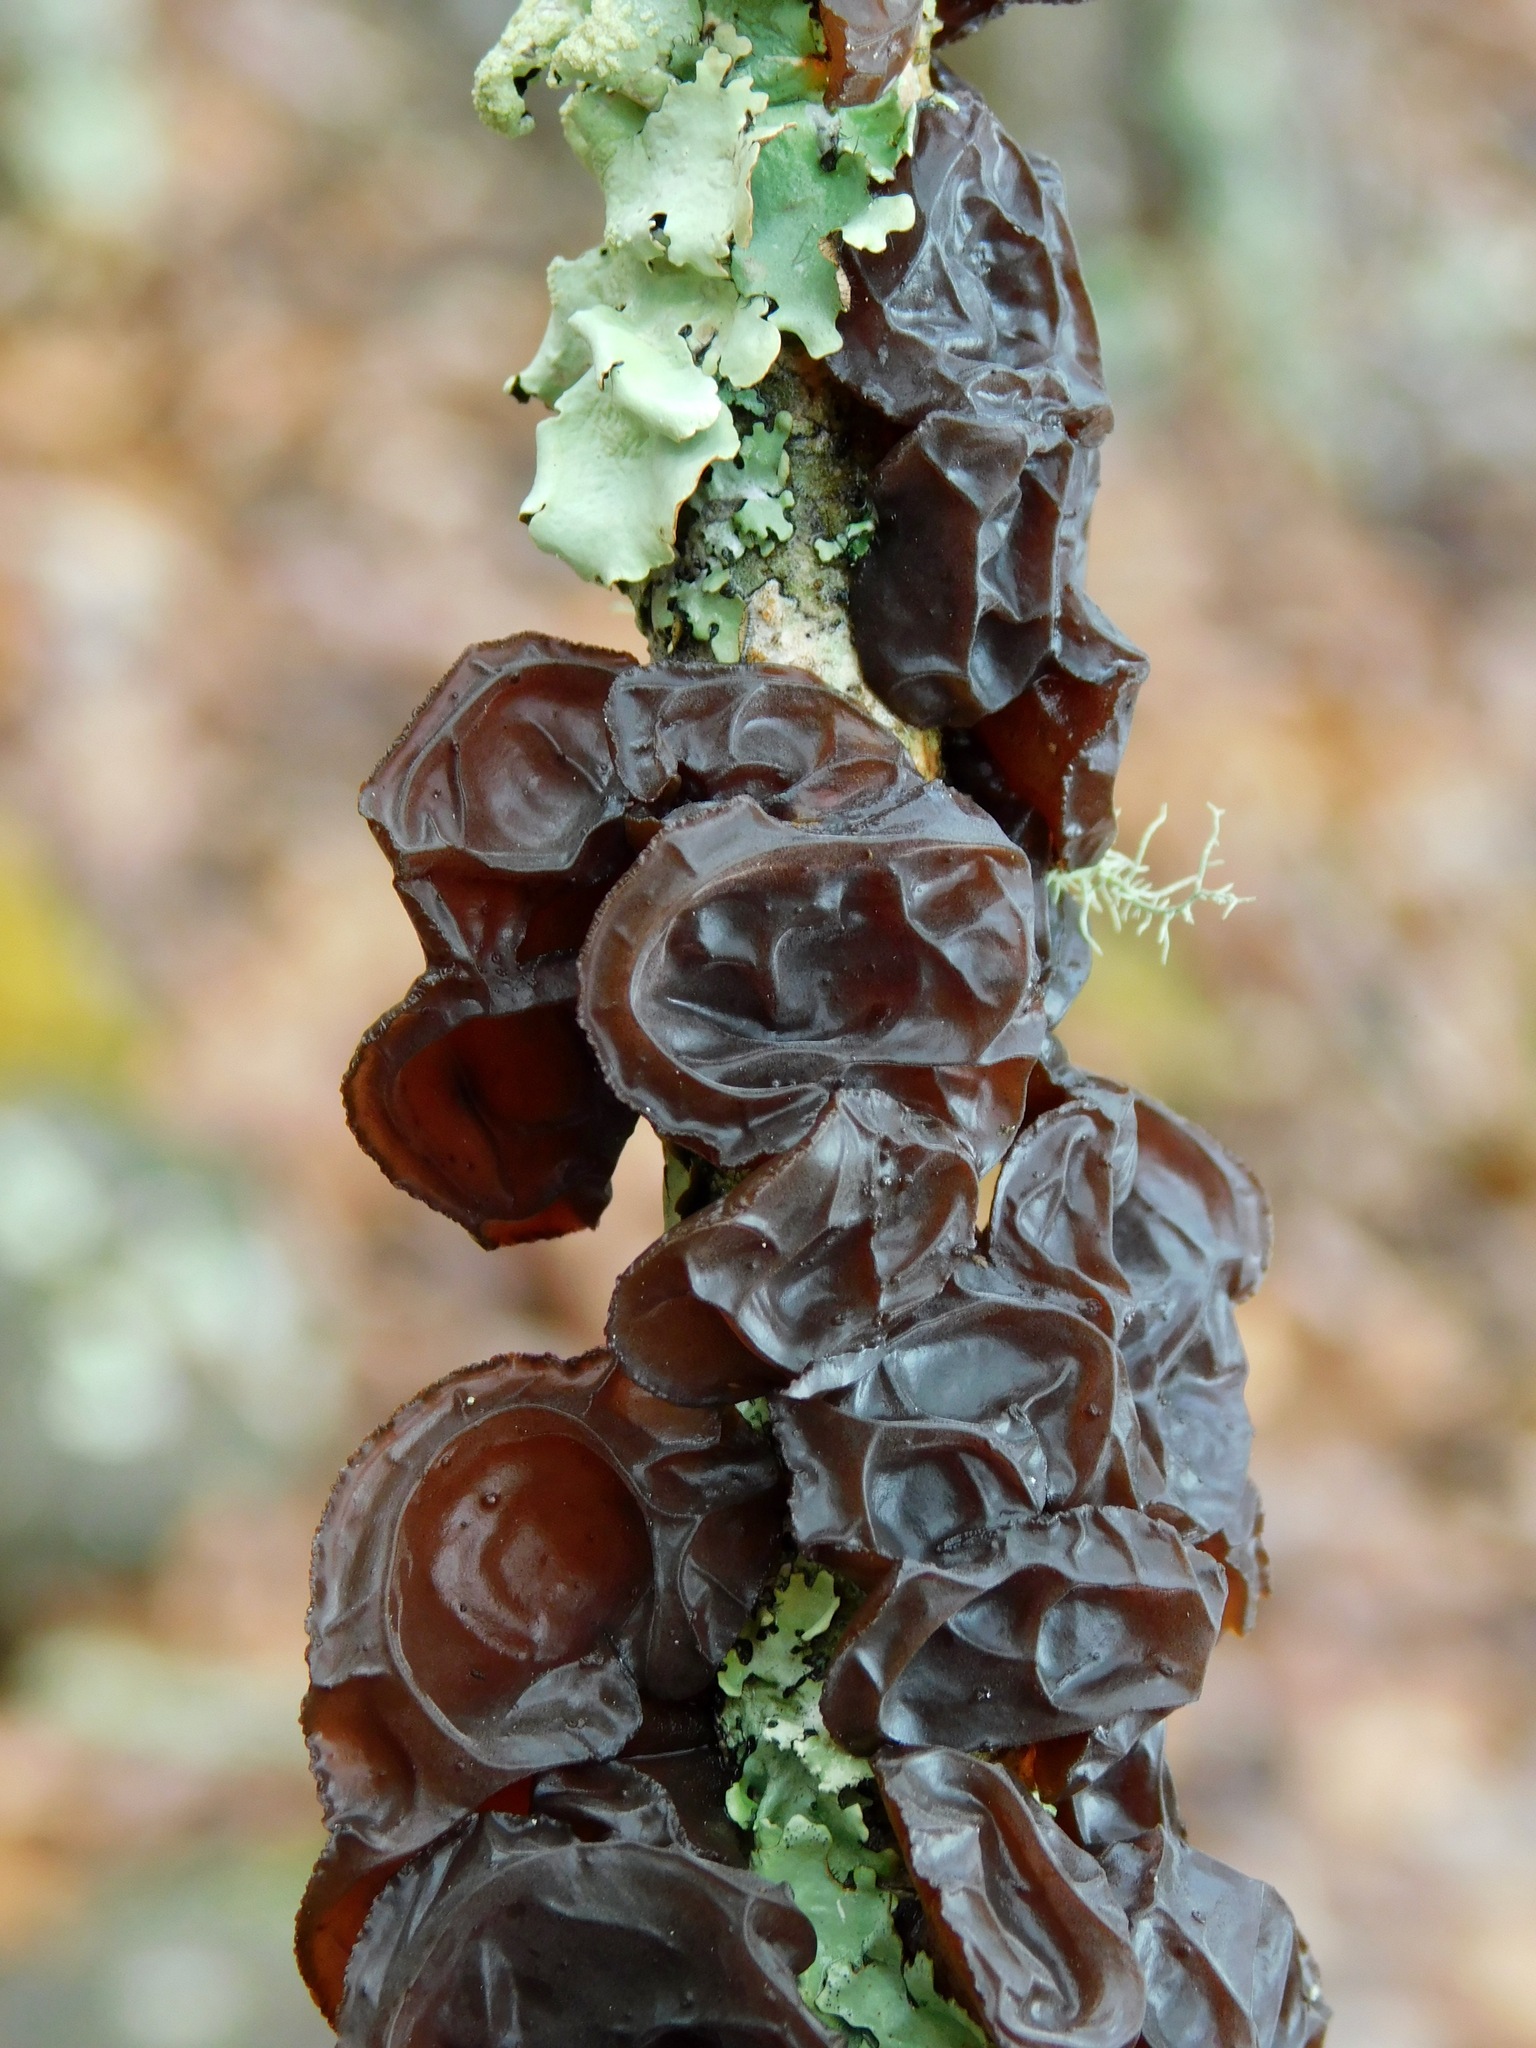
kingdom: Fungi
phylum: Basidiomycota
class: Agaricomycetes
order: Auriculariales
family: Auriculariaceae
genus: Exidia
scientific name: Exidia
